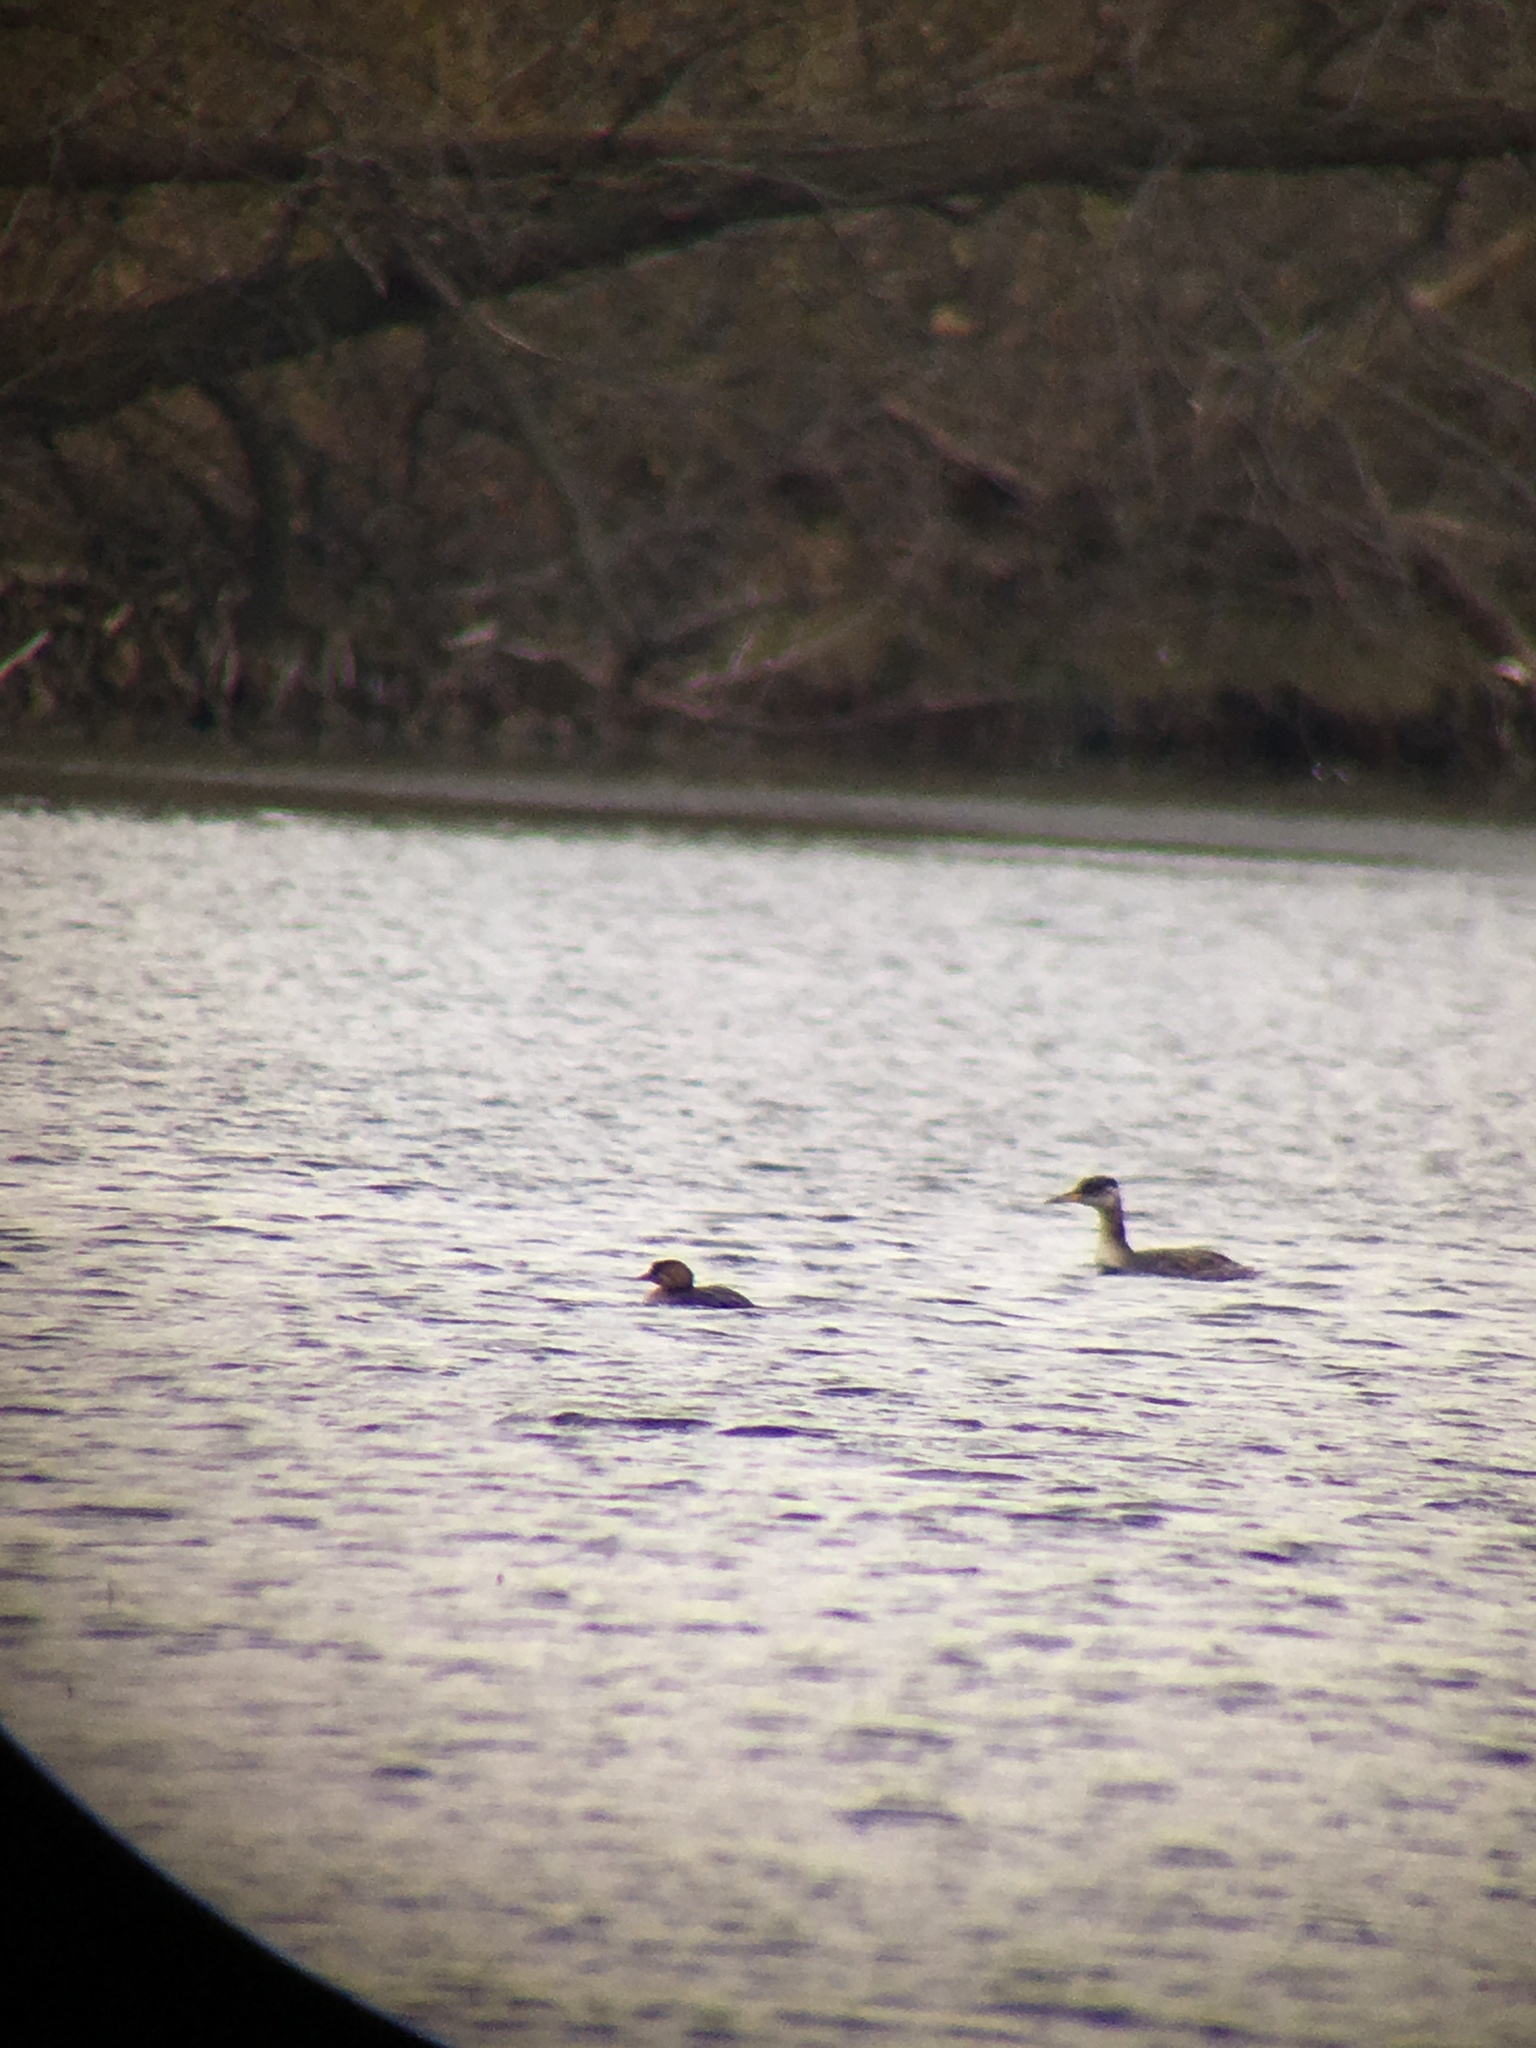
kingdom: Animalia
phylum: Chordata
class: Aves
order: Podicipediformes
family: Podicipedidae
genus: Podiceps
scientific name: Podiceps grisegena
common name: Red-necked grebe
